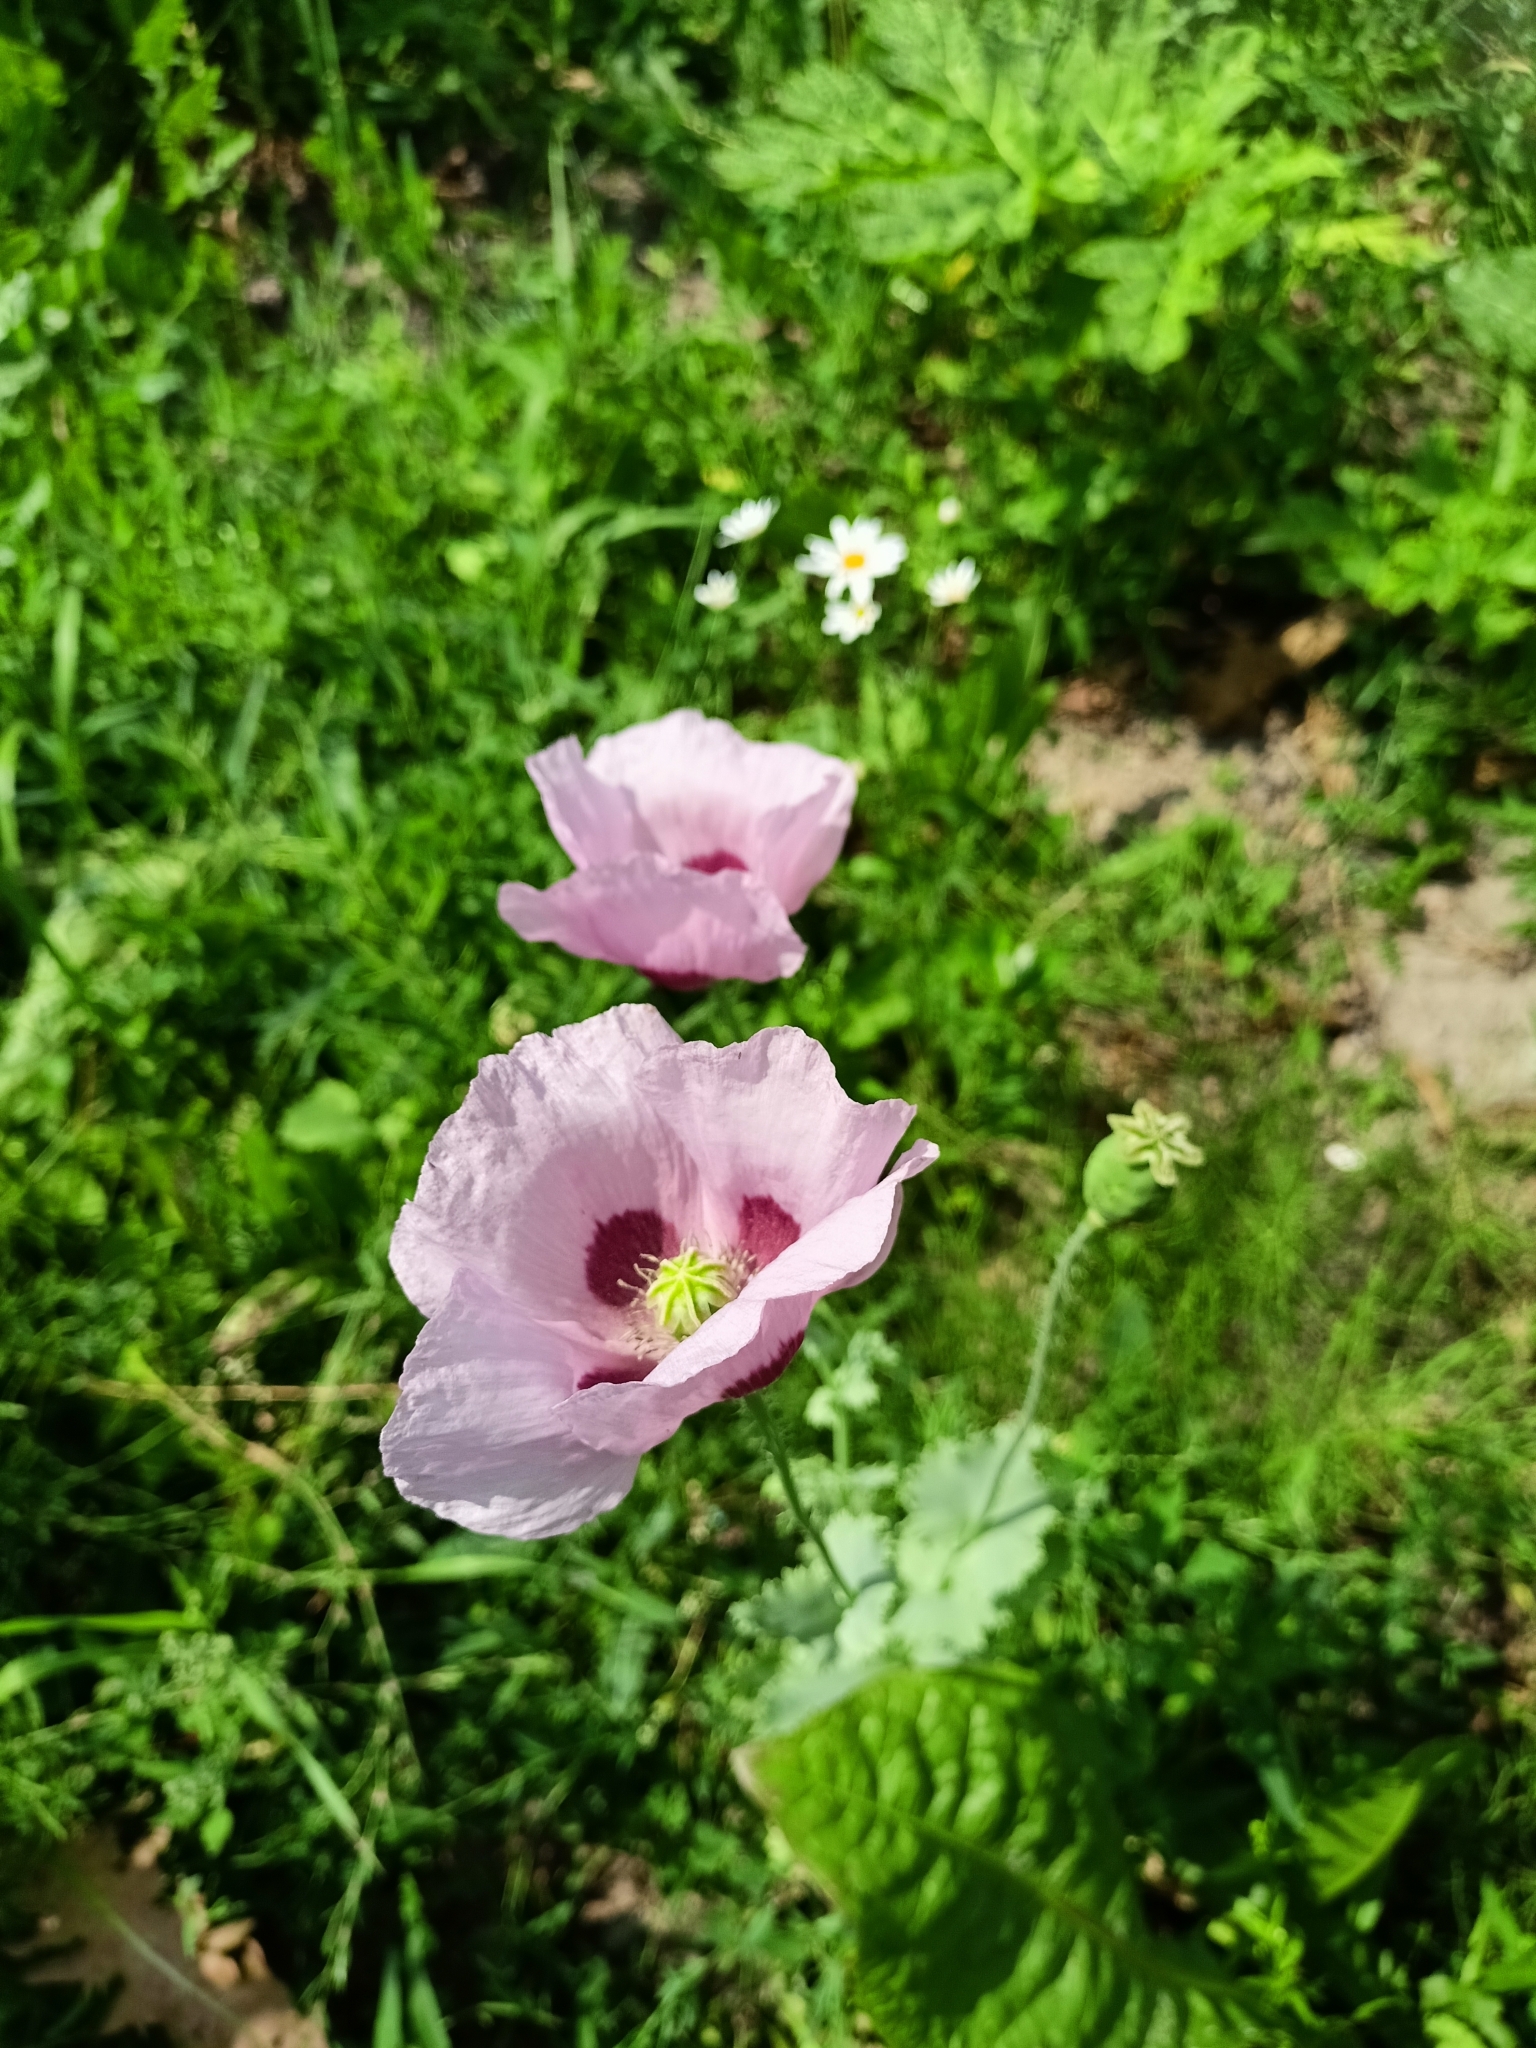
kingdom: Plantae
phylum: Tracheophyta
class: Magnoliopsida
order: Ranunculales
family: Papaveraceae
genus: Papaver
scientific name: Papaver somniferum
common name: Opium poppy
